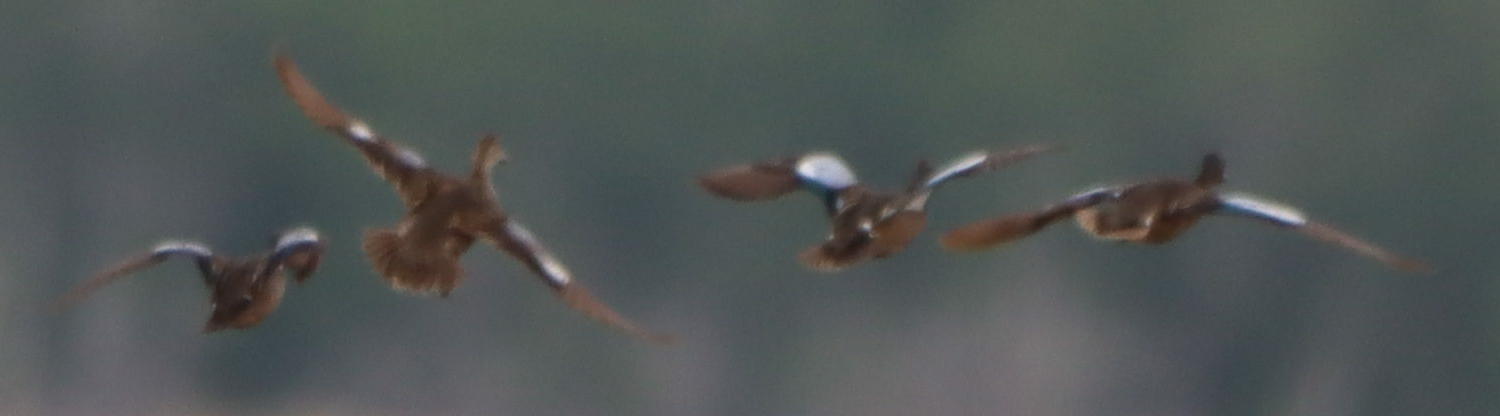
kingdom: Animalia
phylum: Chordata
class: Aves
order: Anseriformes
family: Anatidae
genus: Spatula
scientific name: Spatula discors
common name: Blue-winged teal
